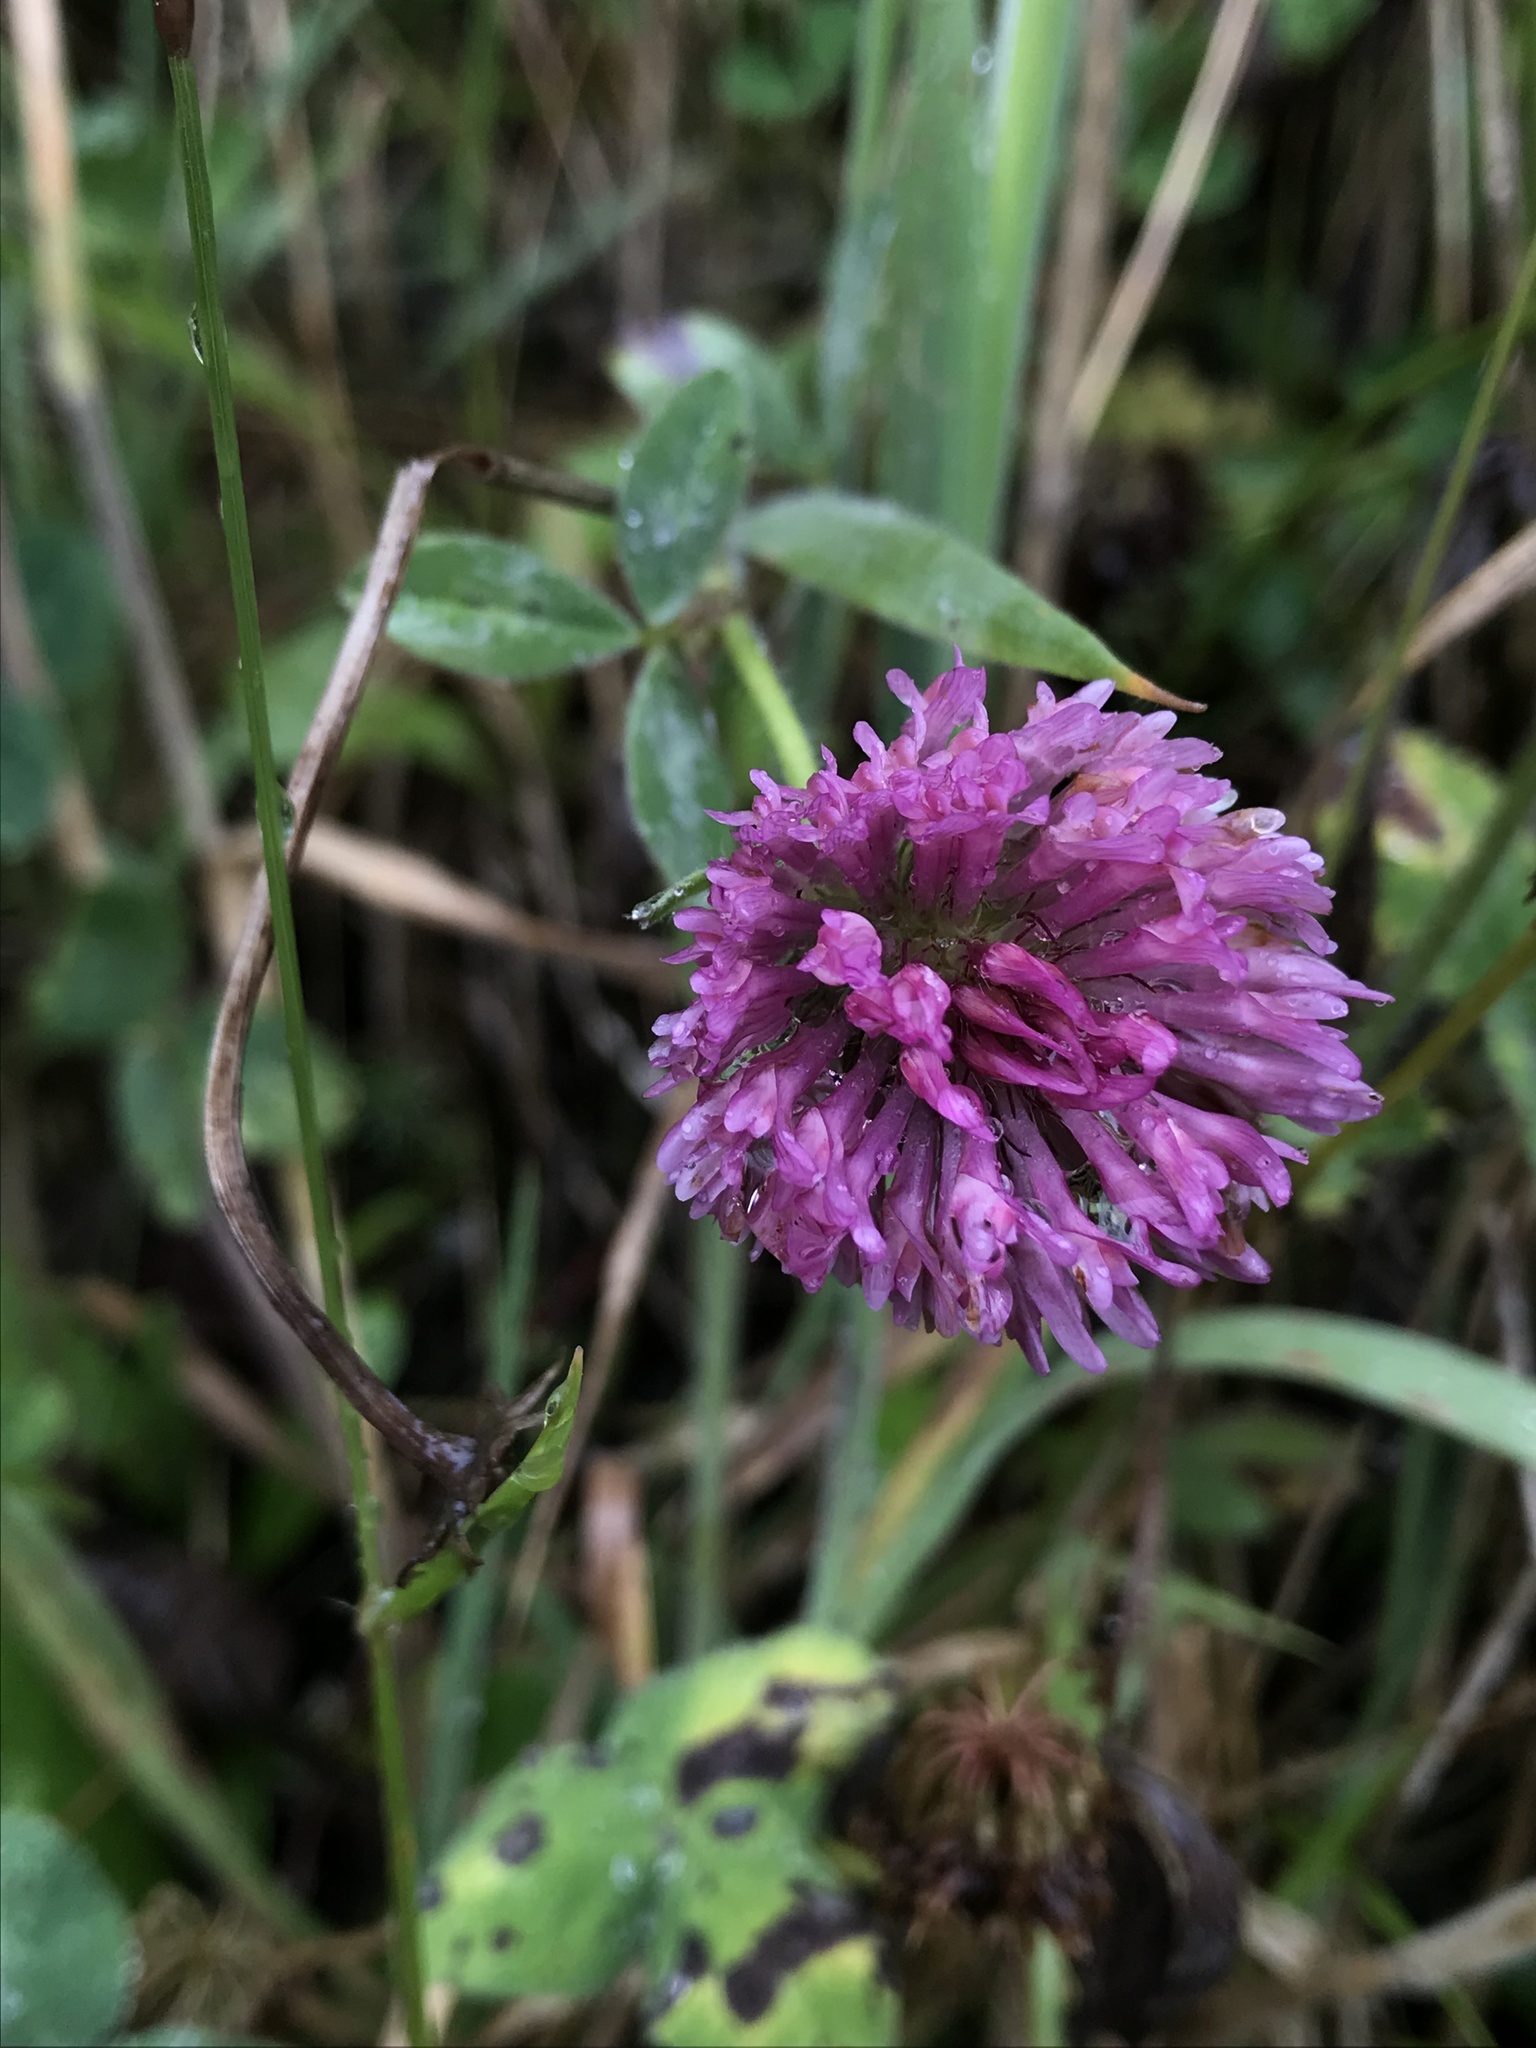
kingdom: Plantae
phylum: Tracheophyta
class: Magnoliopsida
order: Fabales
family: Fabaceae
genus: Trifolium
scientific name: Trifolium pratense
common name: Red clover
